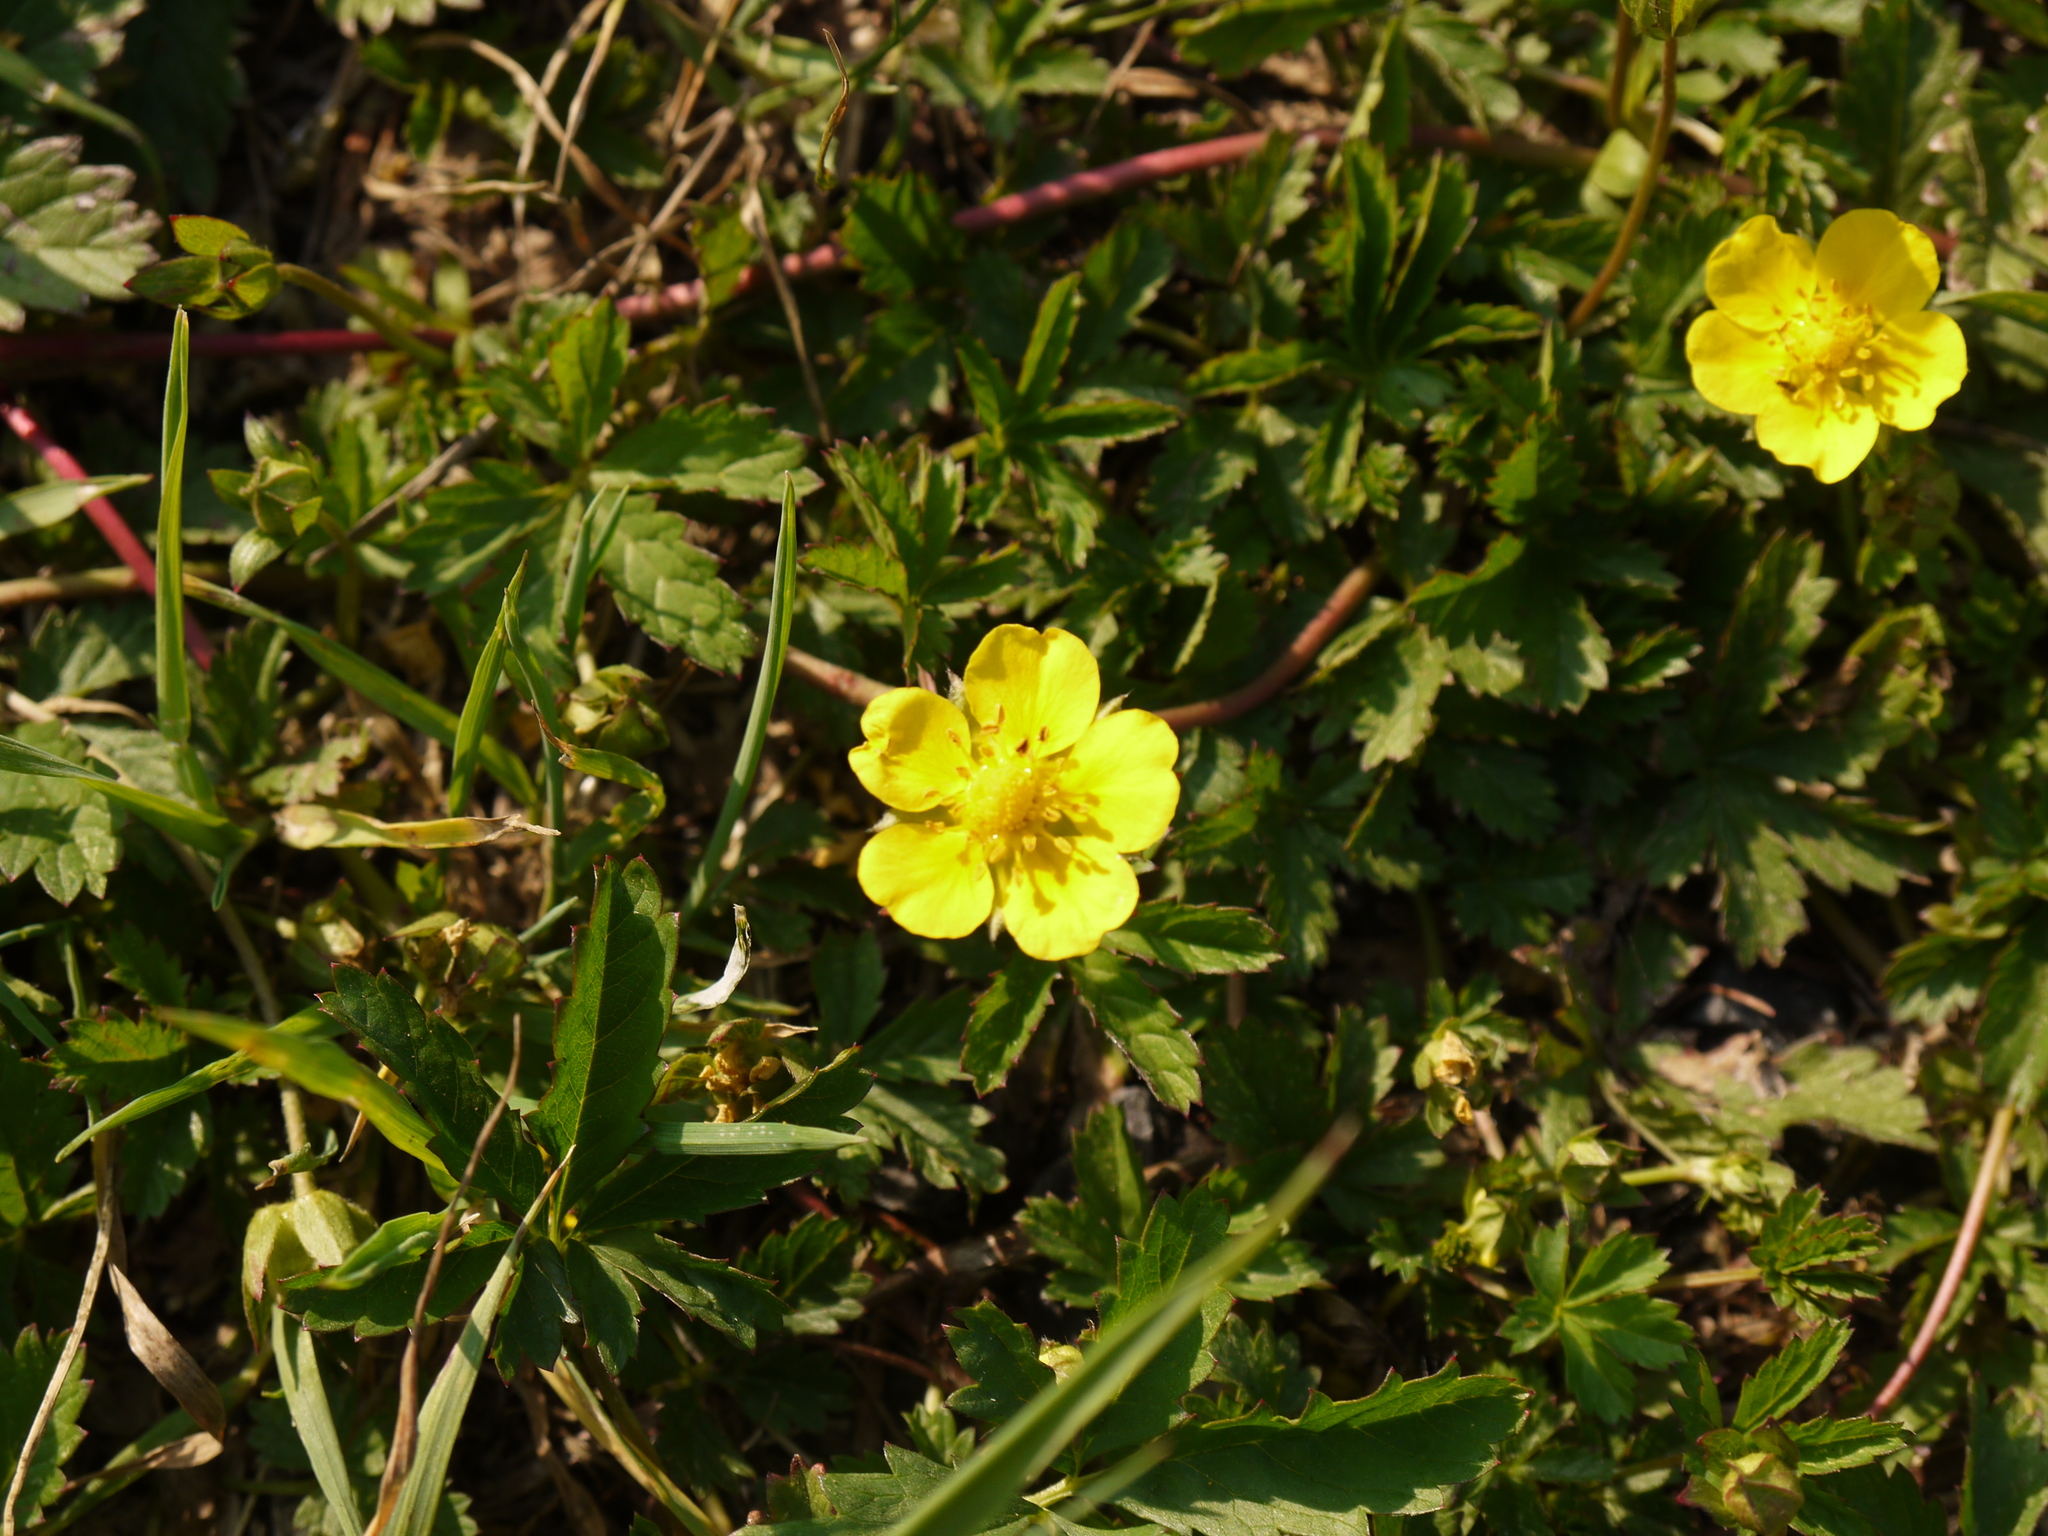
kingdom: Plantae
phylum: Tracheophyta
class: Magnoliopsida
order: Rosales
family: Rosaceae
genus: Potentilla
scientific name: Potentilla reptans
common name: Creeping cinquefoil
